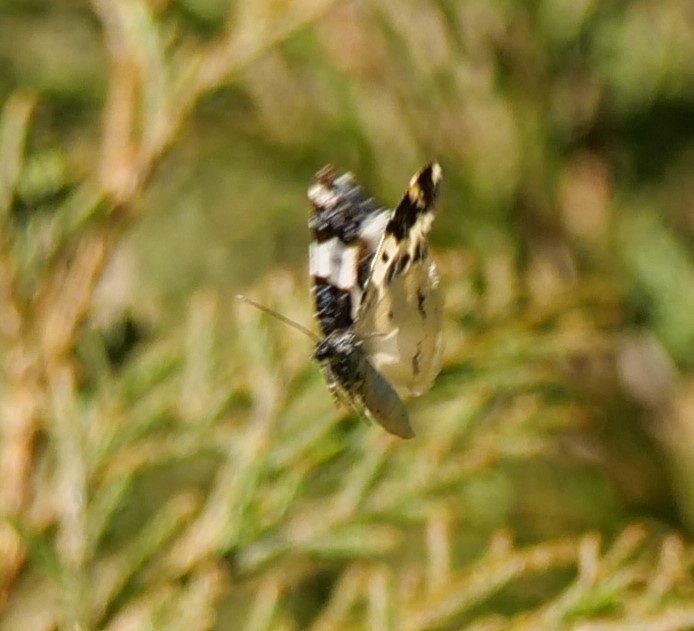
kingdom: Animalia
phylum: Arthropoda
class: Insecta
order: Lepidoptera
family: Geometridae
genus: Mesoleuca
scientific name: Mesoleuca gratulata
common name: Half-white carpet moth
